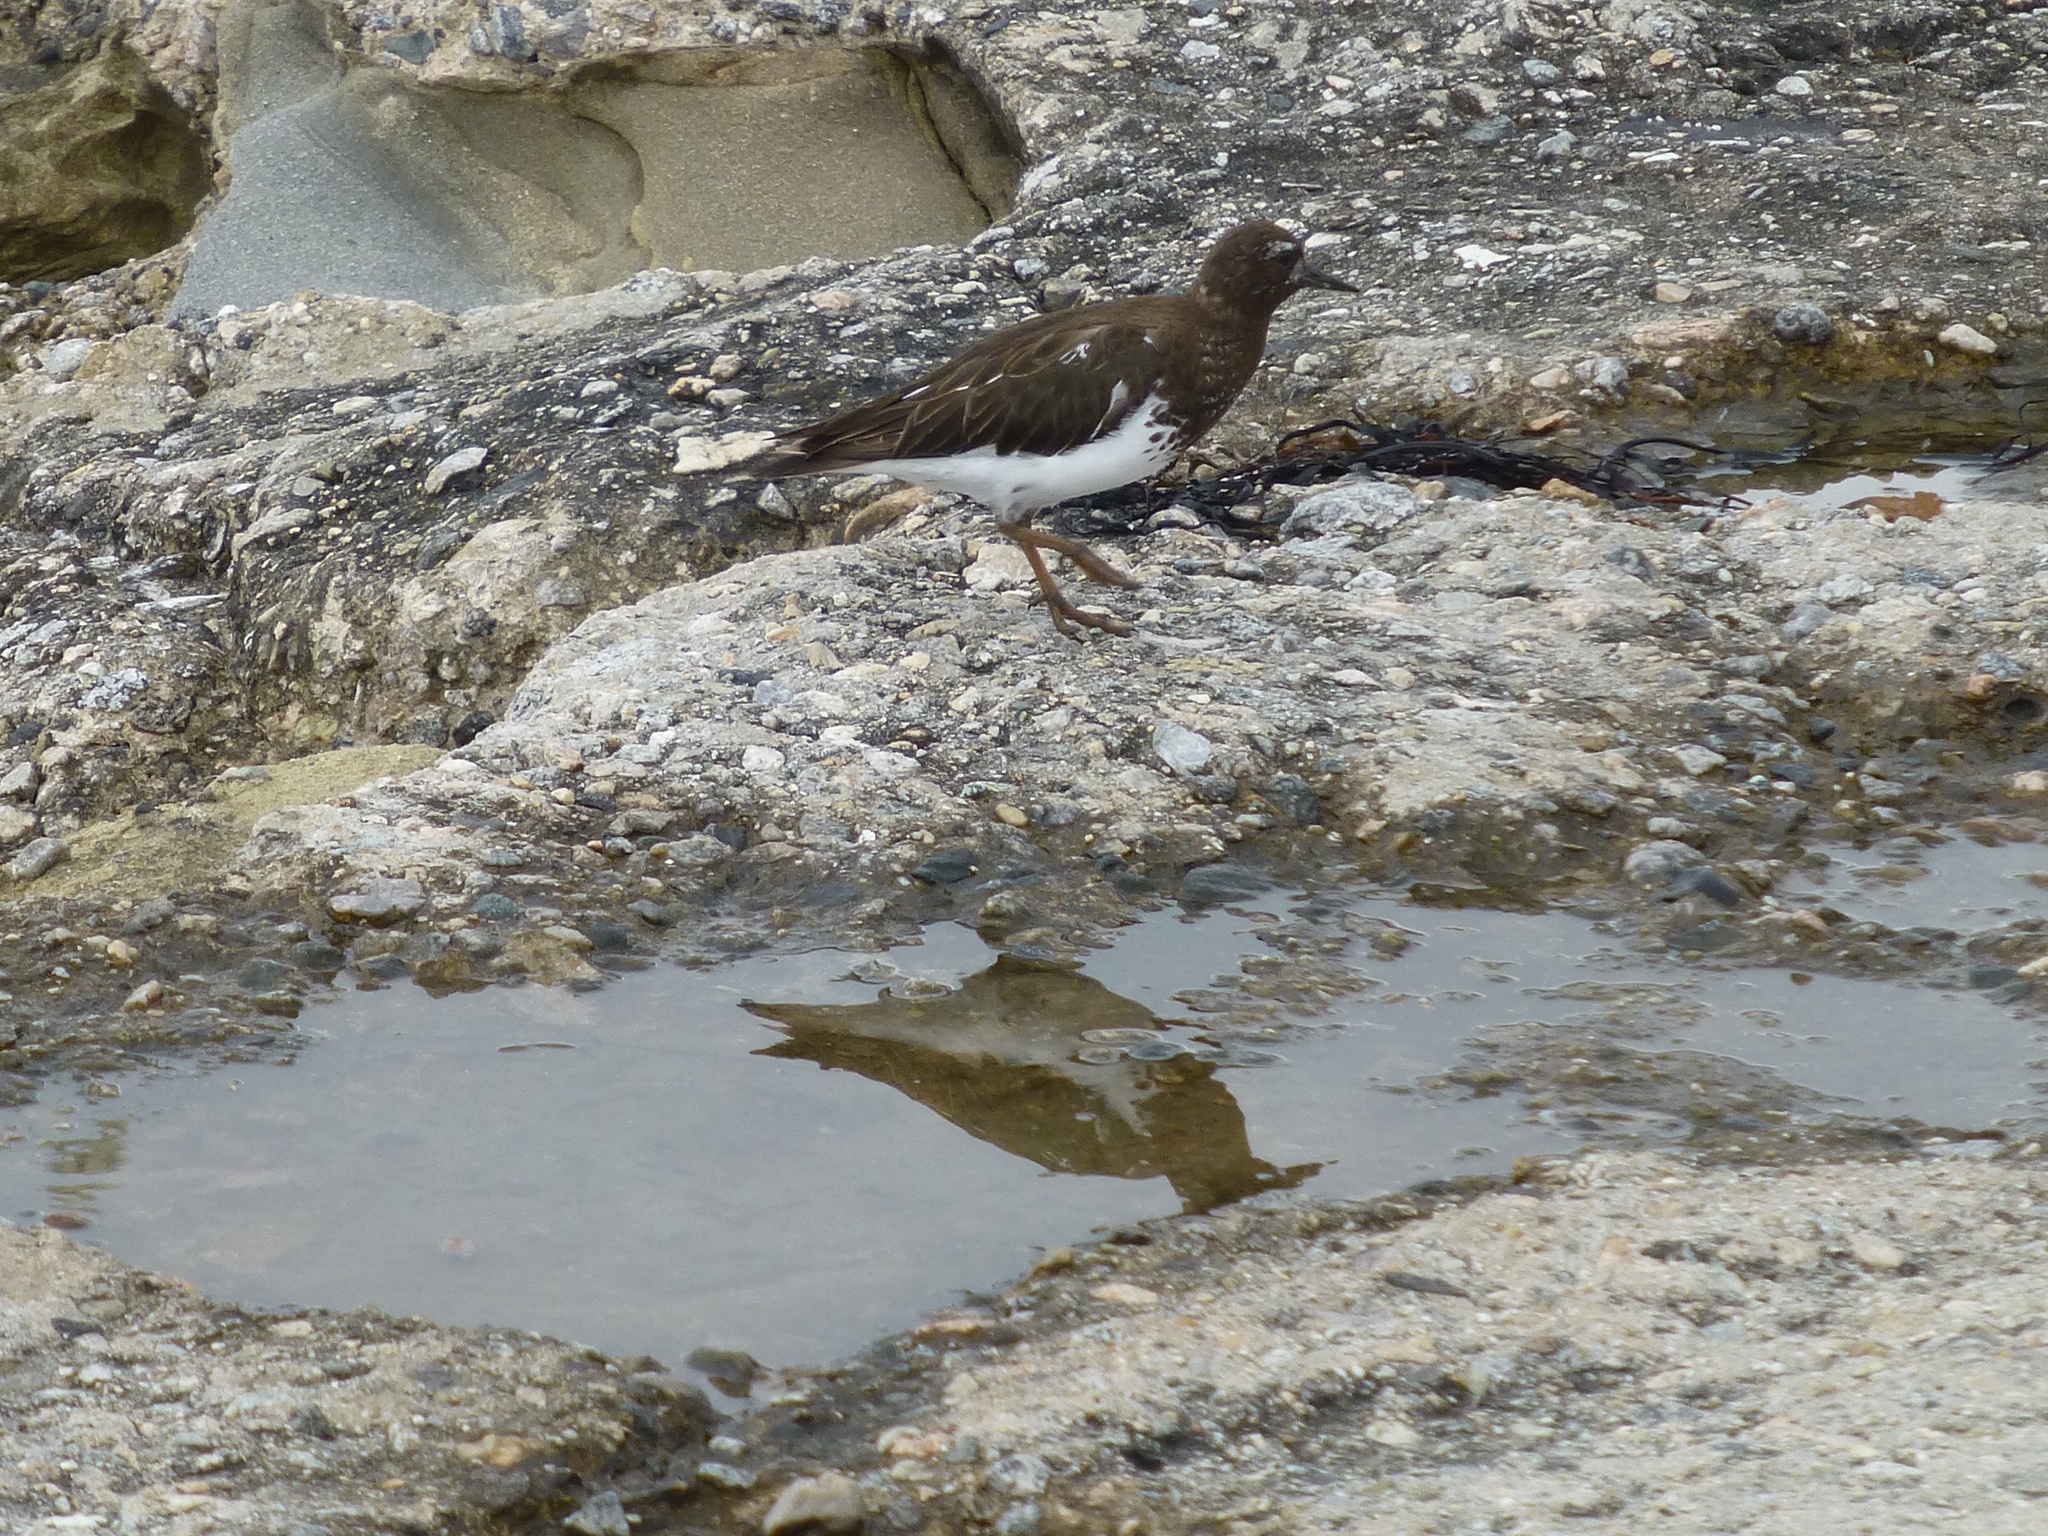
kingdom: Animalia
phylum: Chordata
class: Aves
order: Charadriiformes
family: Scolopacidae
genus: Arenaria
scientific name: Arenaria melanocephala
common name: Black turnstone
